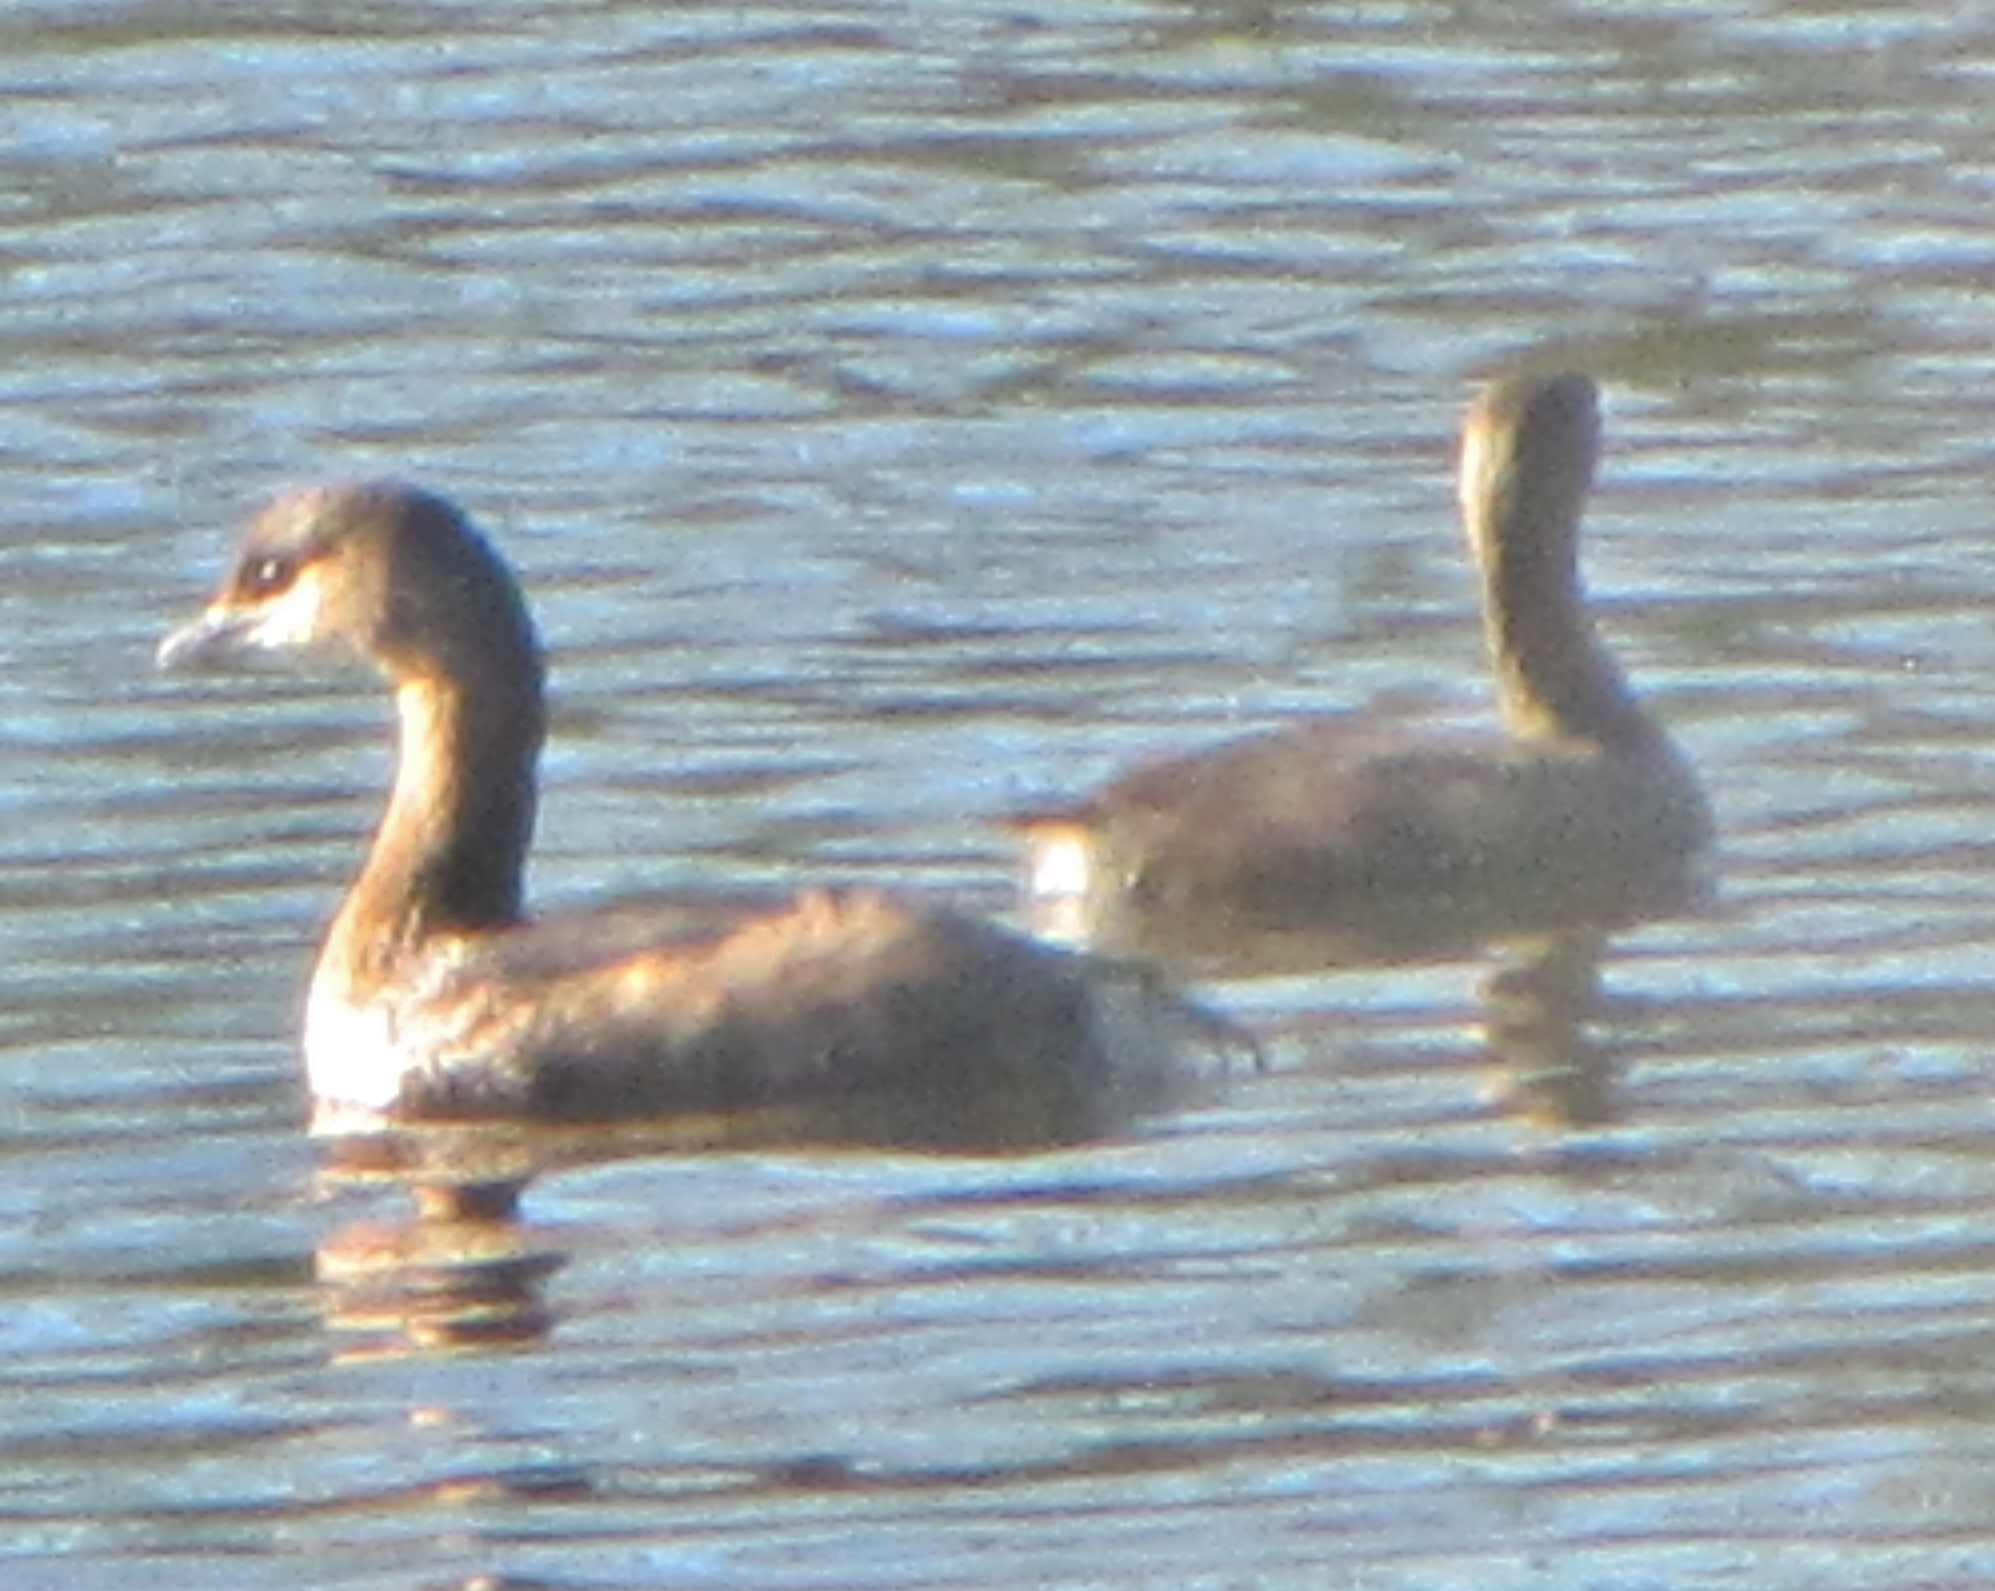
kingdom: Animalia
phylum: Chordata
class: Aves
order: Podicipediformes
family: Podicipedidae
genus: Podilymbus
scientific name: Podilymbus podiceps
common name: Pied-billed grebe
